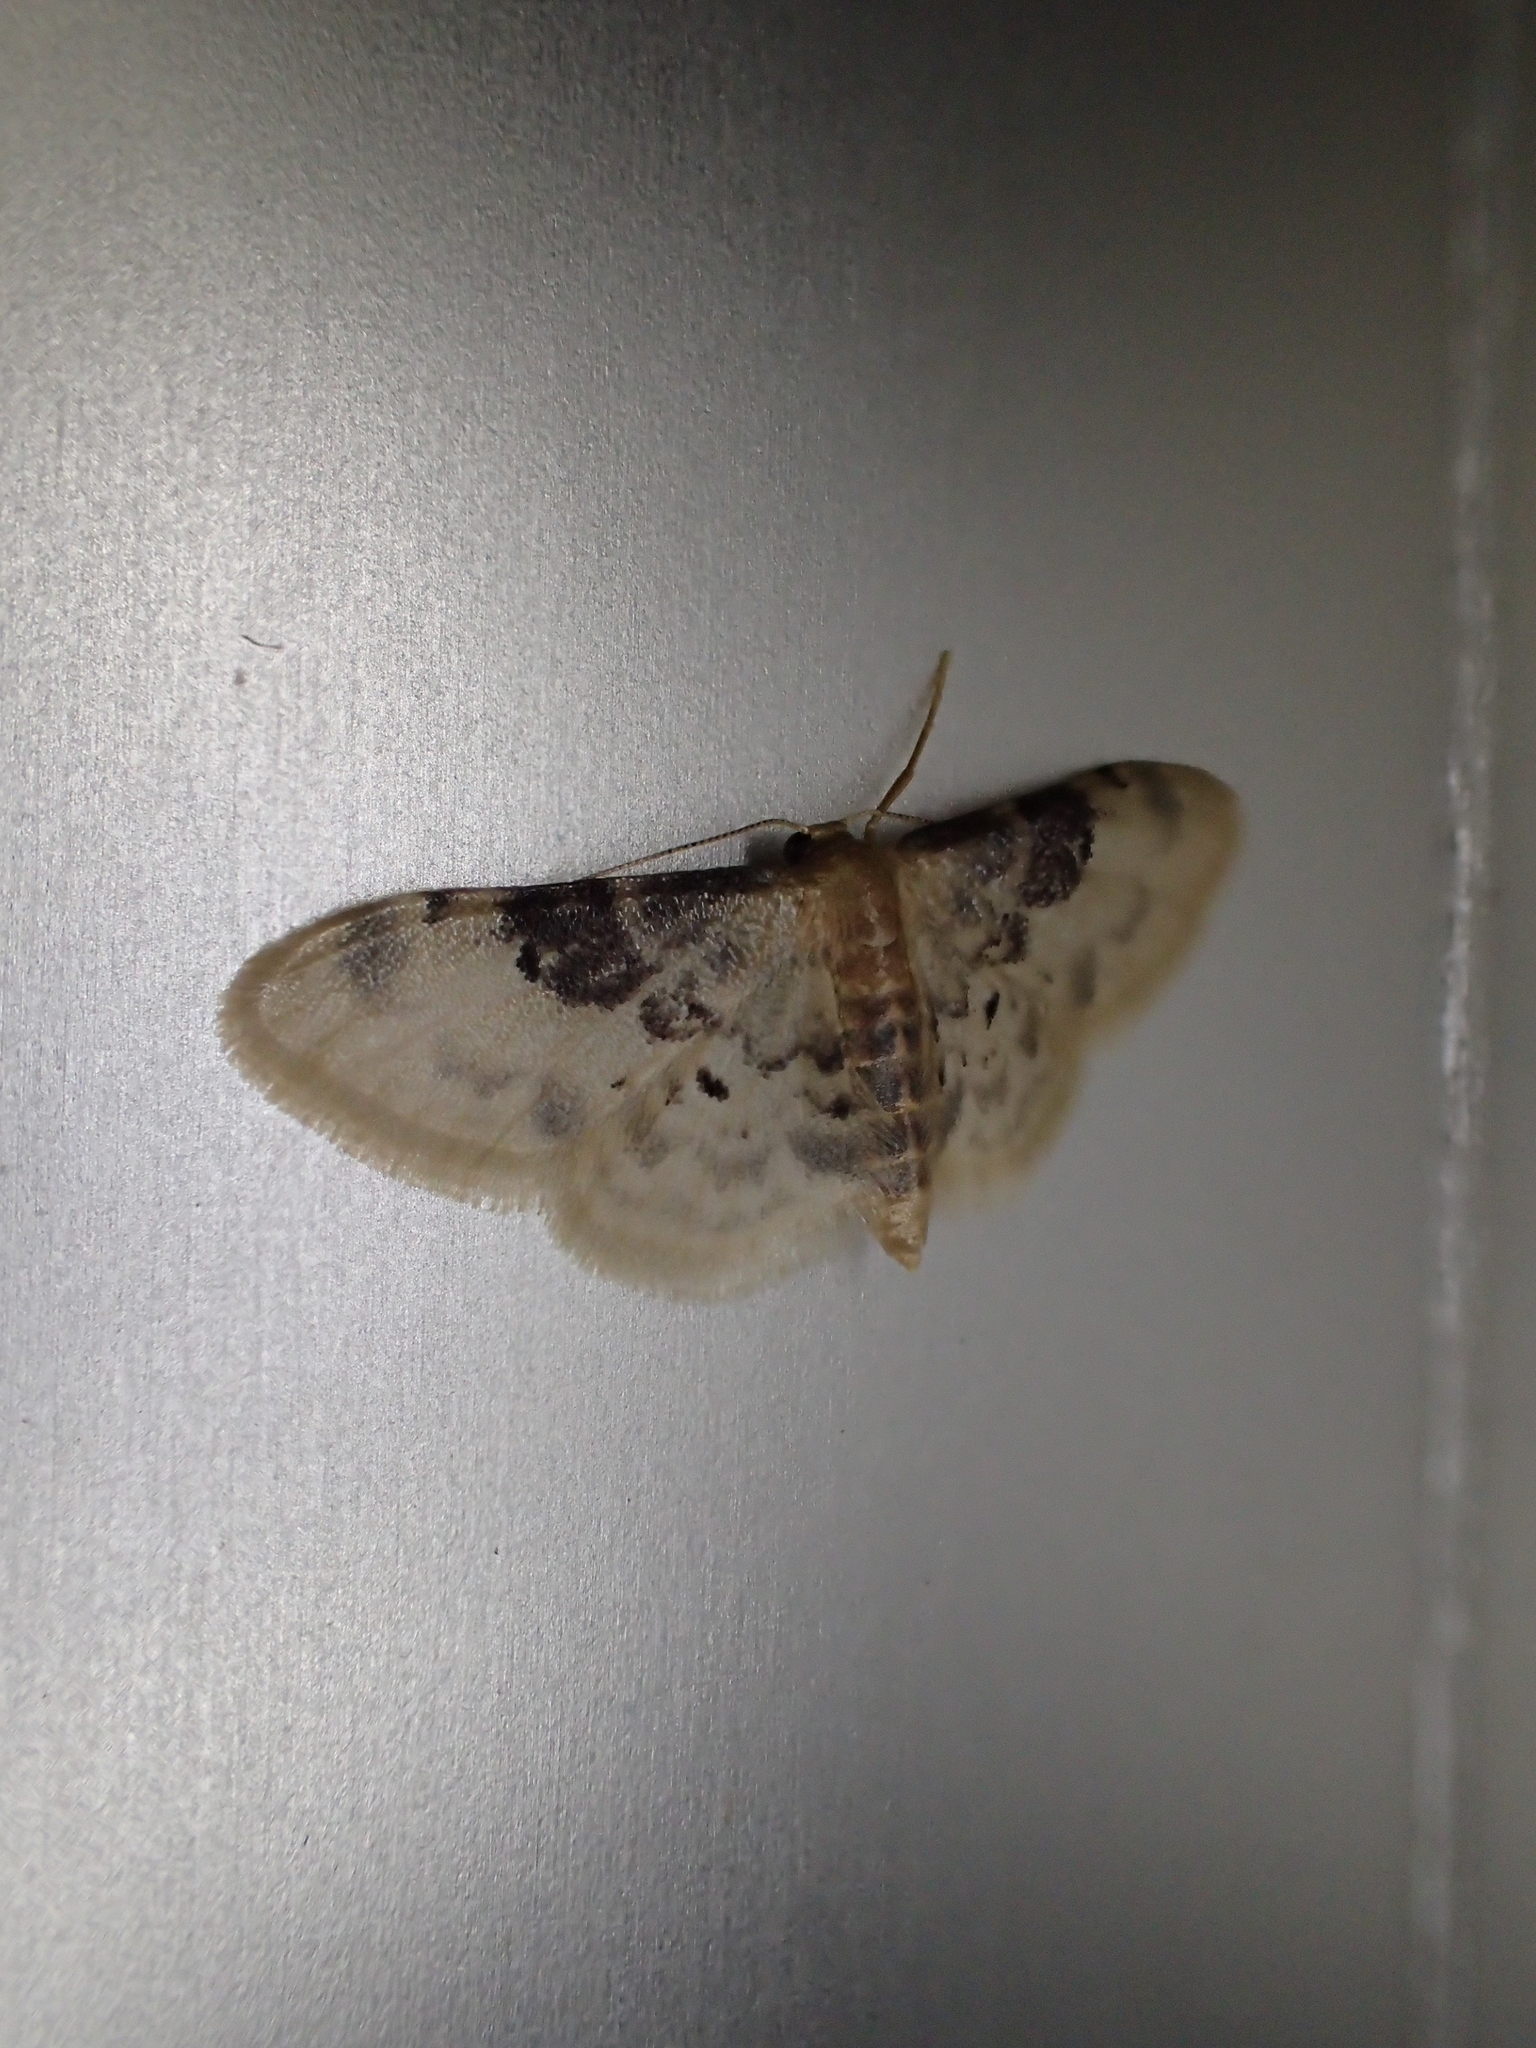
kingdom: Animalia
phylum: Arthropoda
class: Insecta
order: Lepidoptera
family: Geometridae
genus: Idaea
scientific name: Idaea filicata
